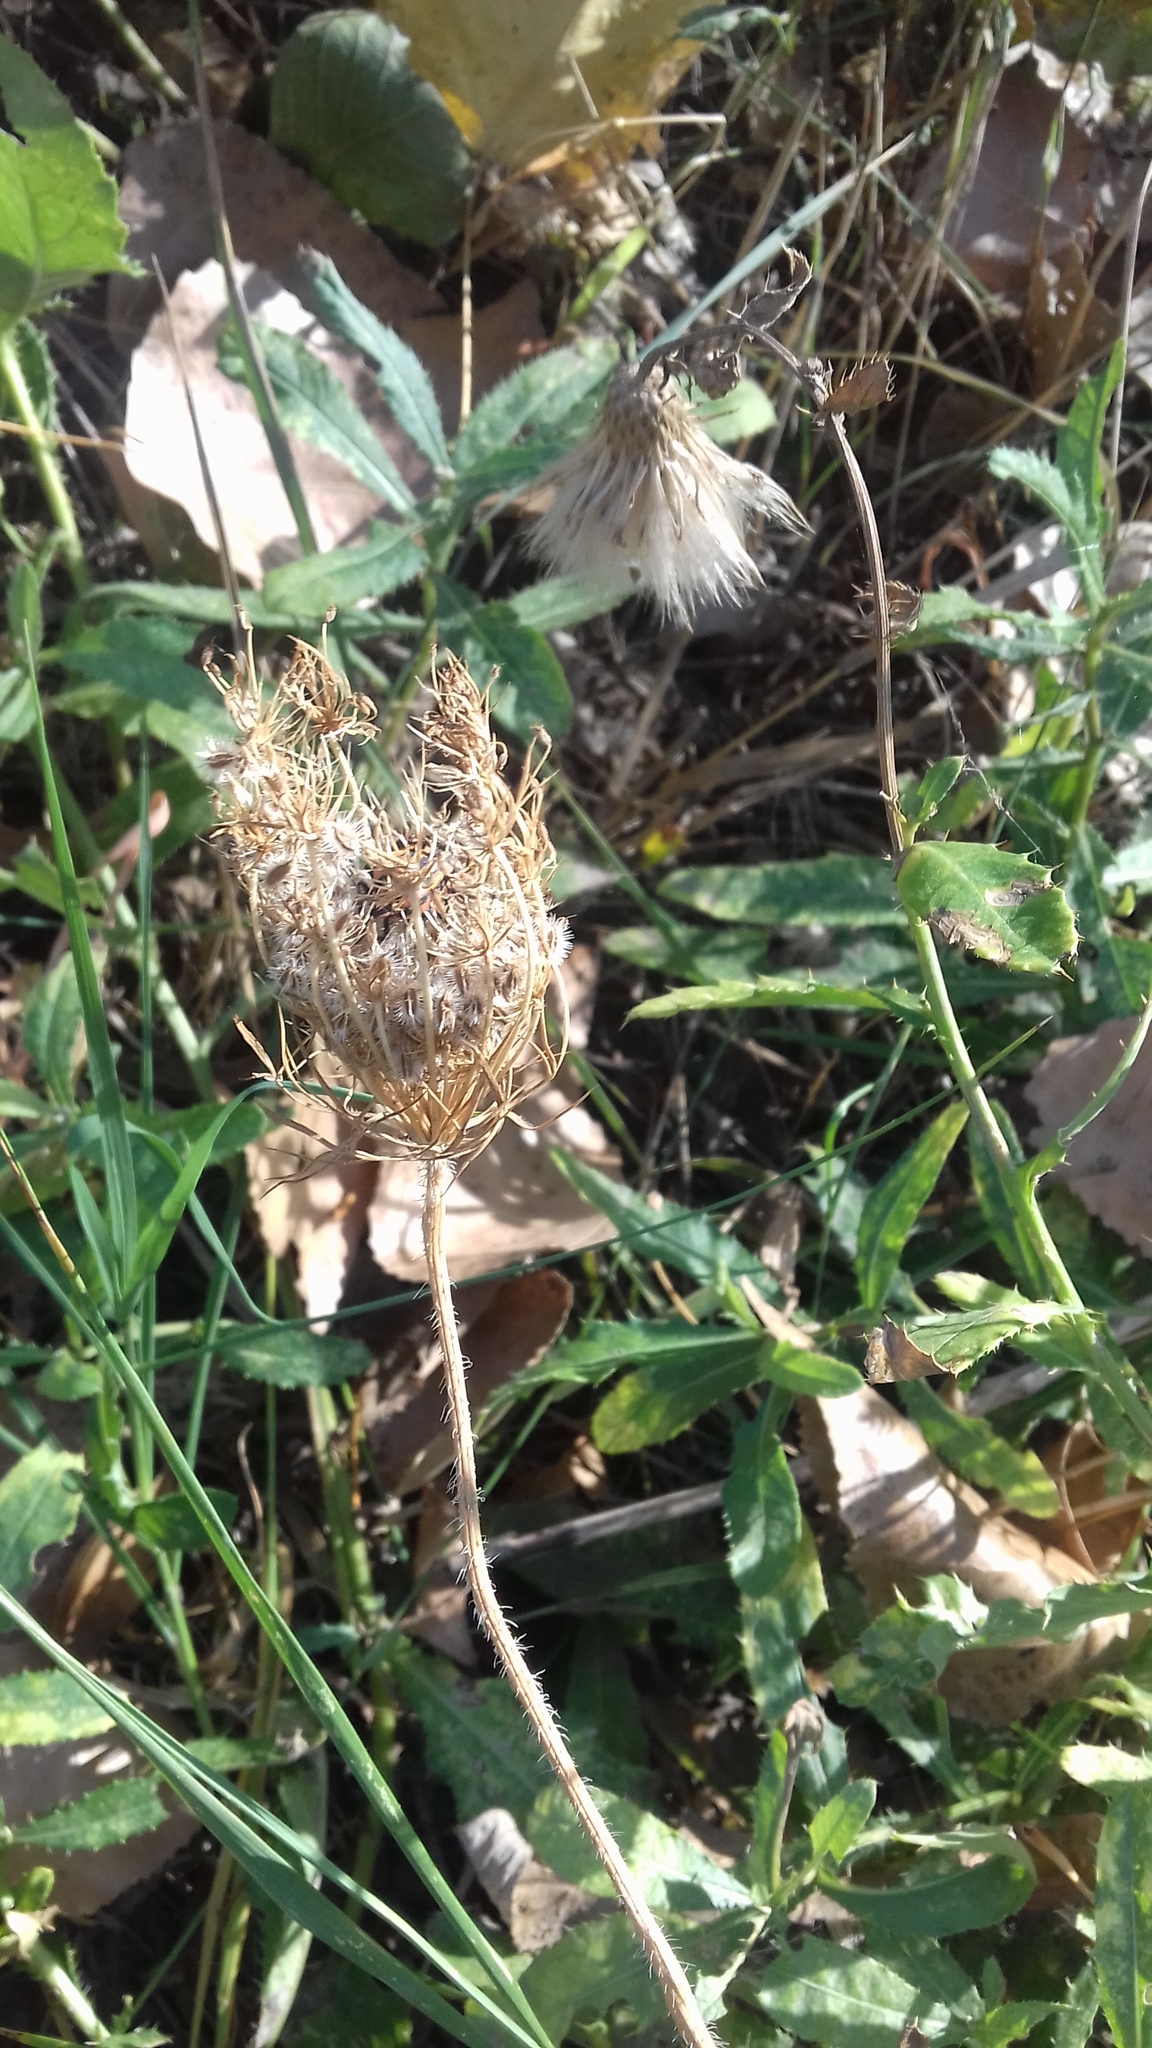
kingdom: Plantae
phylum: Tracheophyta
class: Magnoliopsida
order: Apiales
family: Apiaceae
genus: Daucus
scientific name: Daucus carota
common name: Wild carrot
